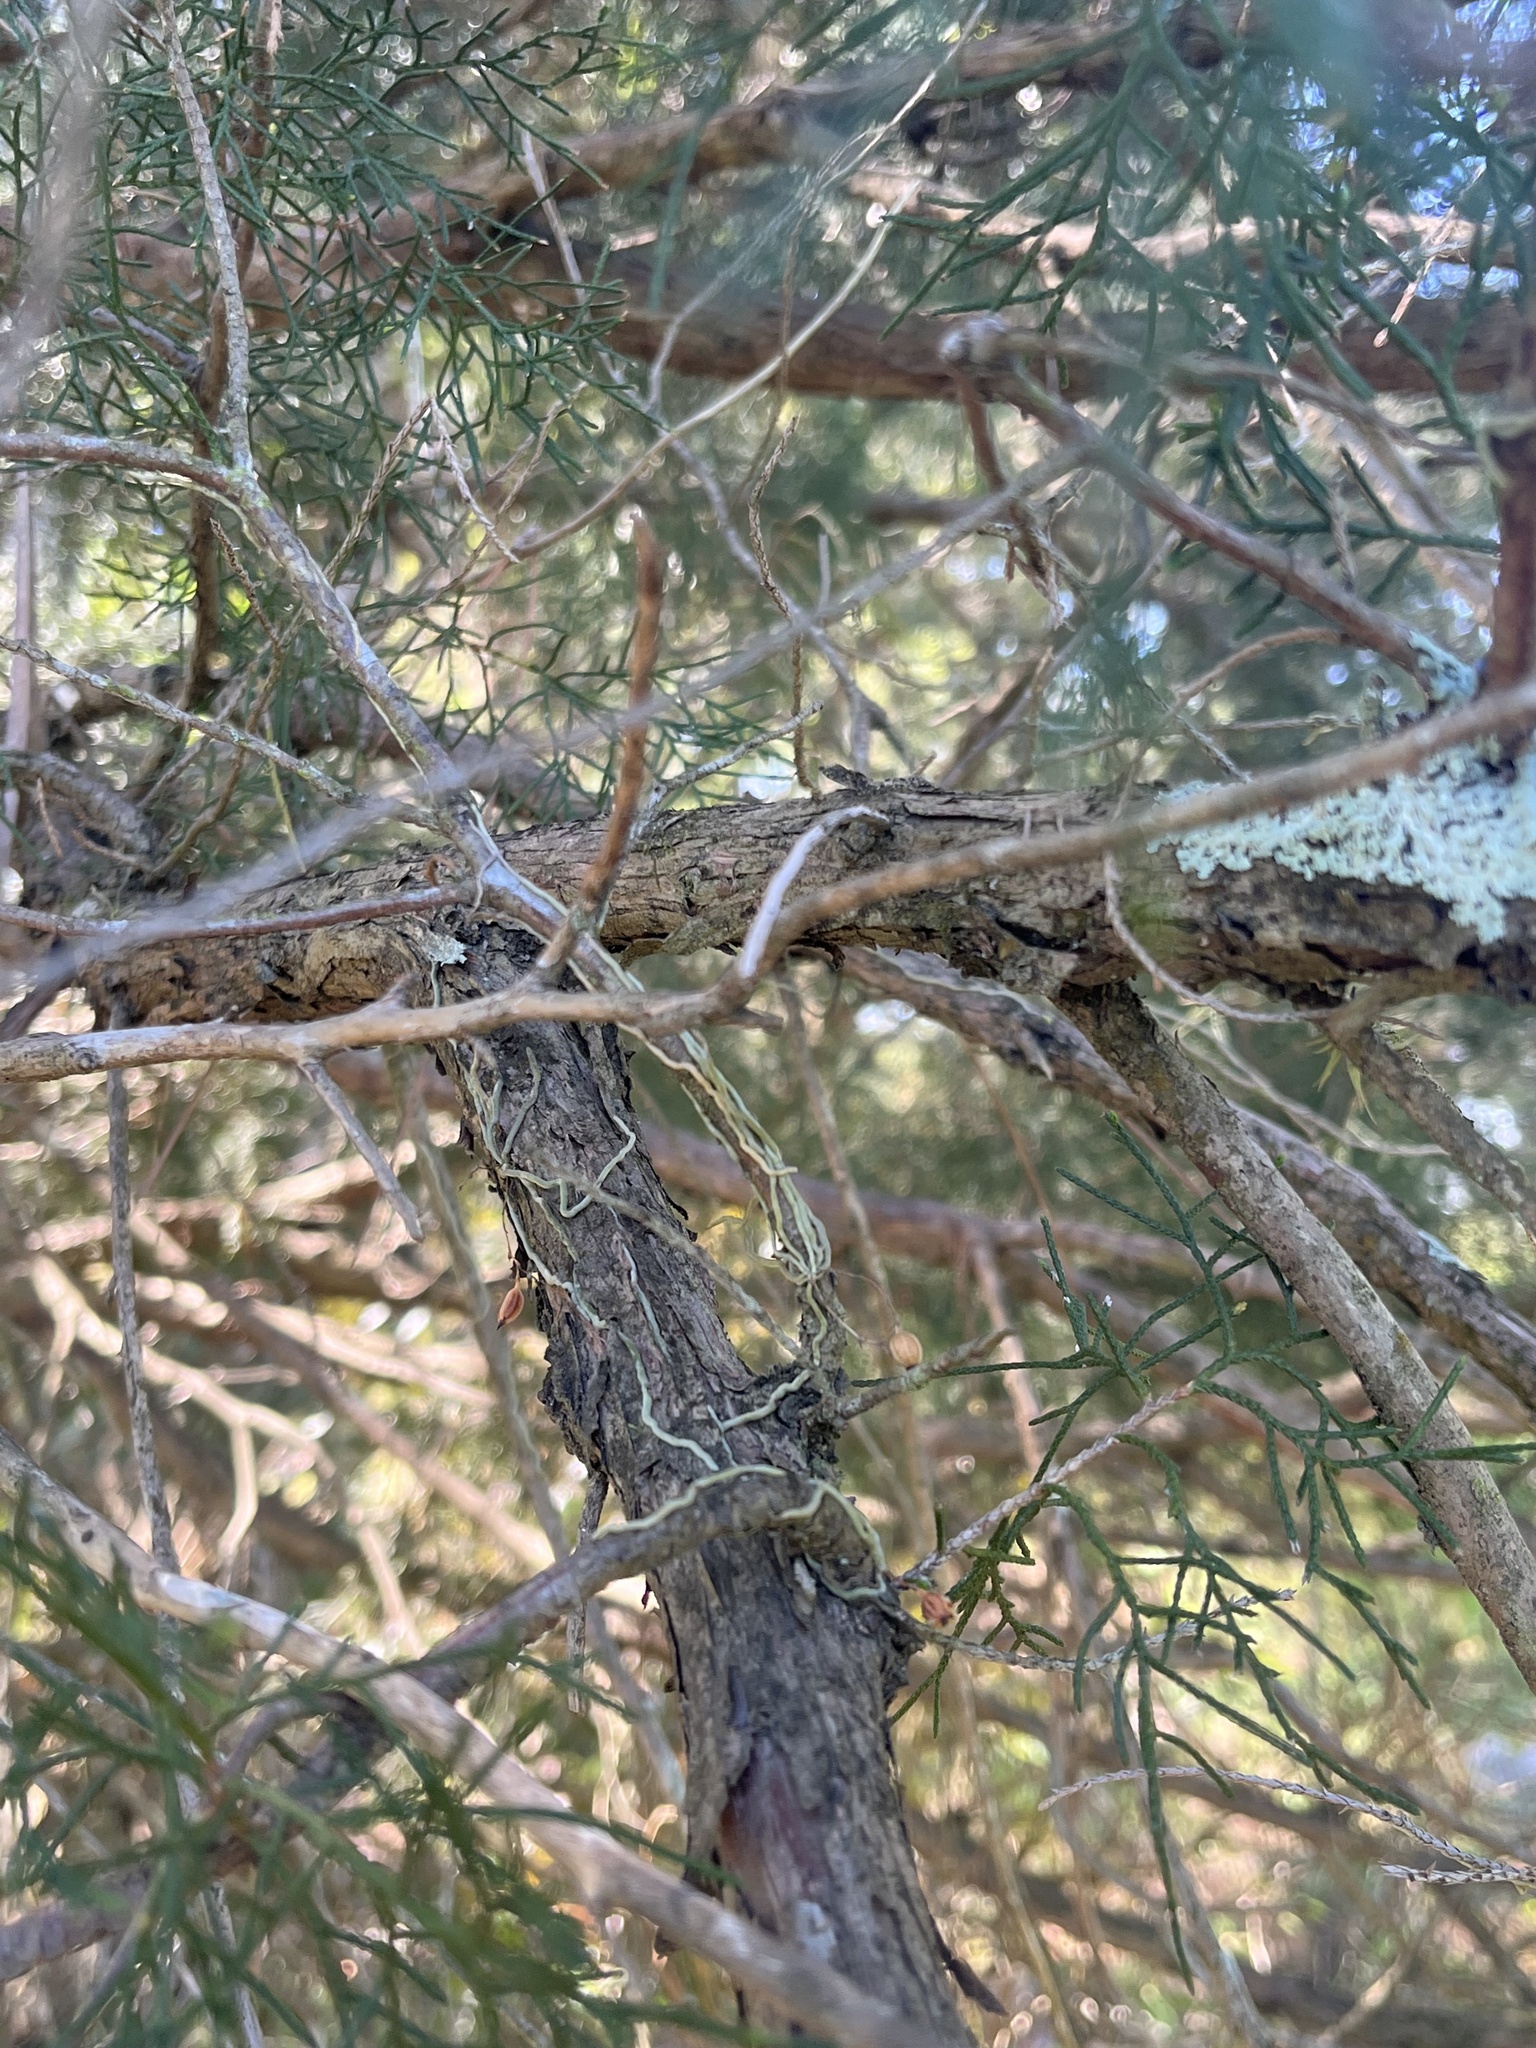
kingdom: Plantae
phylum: Tracheophyta
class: Liliopsida
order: Asparagales
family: Orchidaceae
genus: Dendrophylax
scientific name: Dendrophylax porrectus
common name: Needleroot airplant orchid
